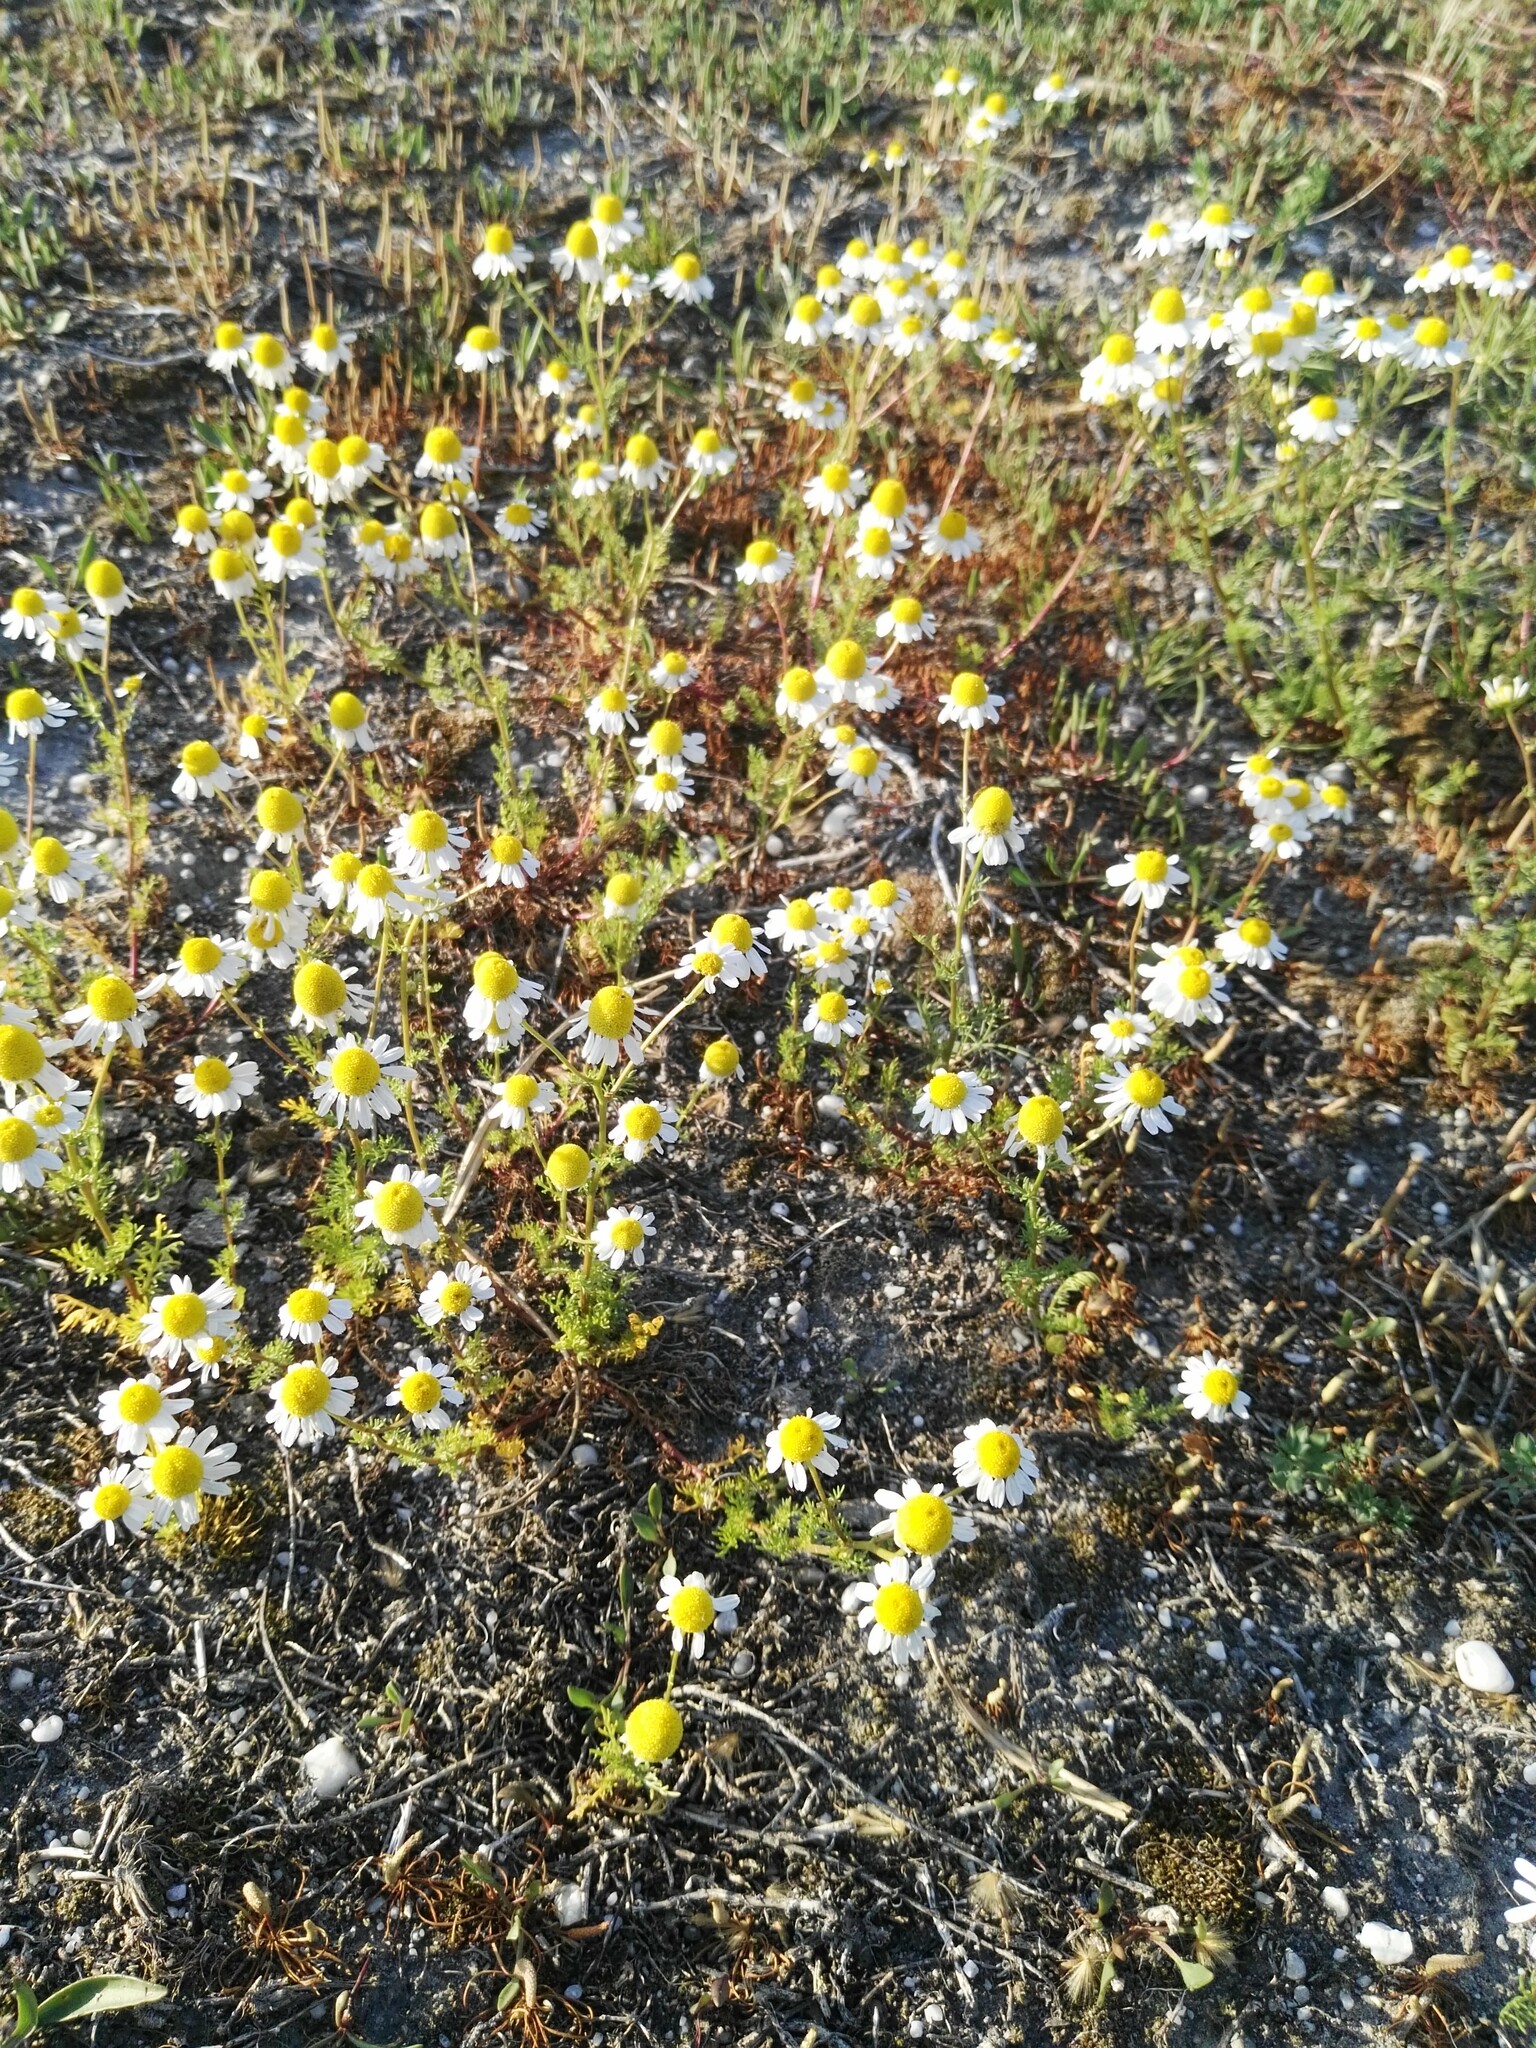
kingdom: Plantae
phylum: Tracheophyta
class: Magnoliopsida
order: Asterales
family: Asteraceae
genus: Matricaria
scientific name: Matricaria chamomilla
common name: Scented mayweed
